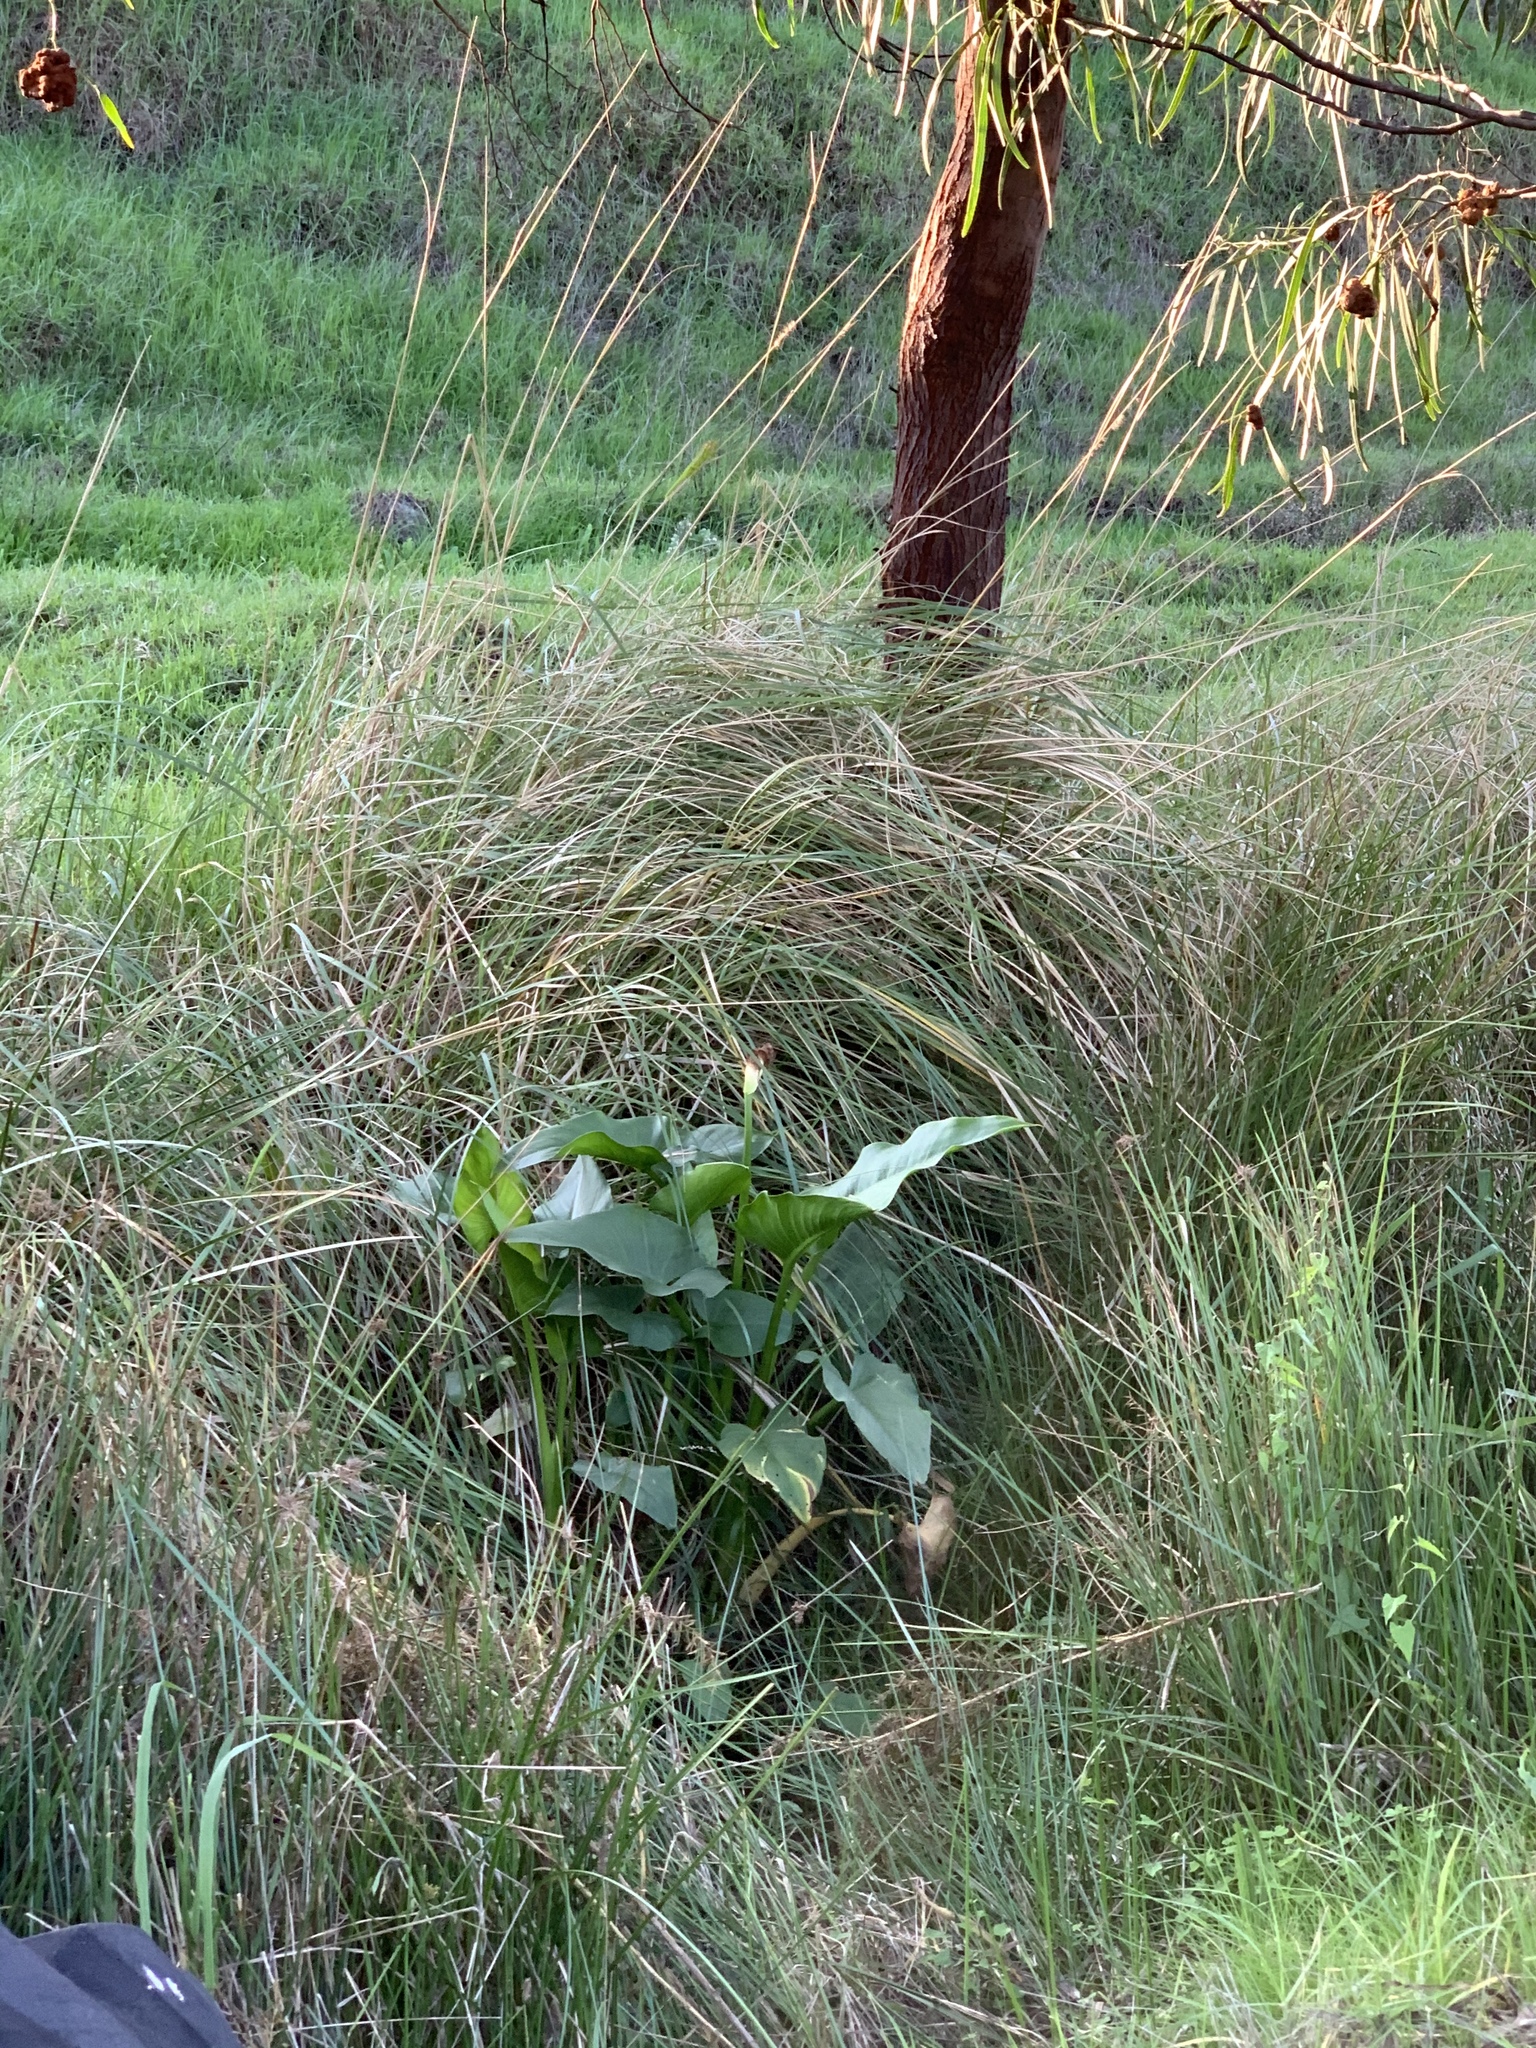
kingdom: Plantae
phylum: Tracheophyta
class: Liliopsida
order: Alismatales
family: Araceae
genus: Zantedeschia
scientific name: Zantedeschia aethiopica
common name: Altar-lily
